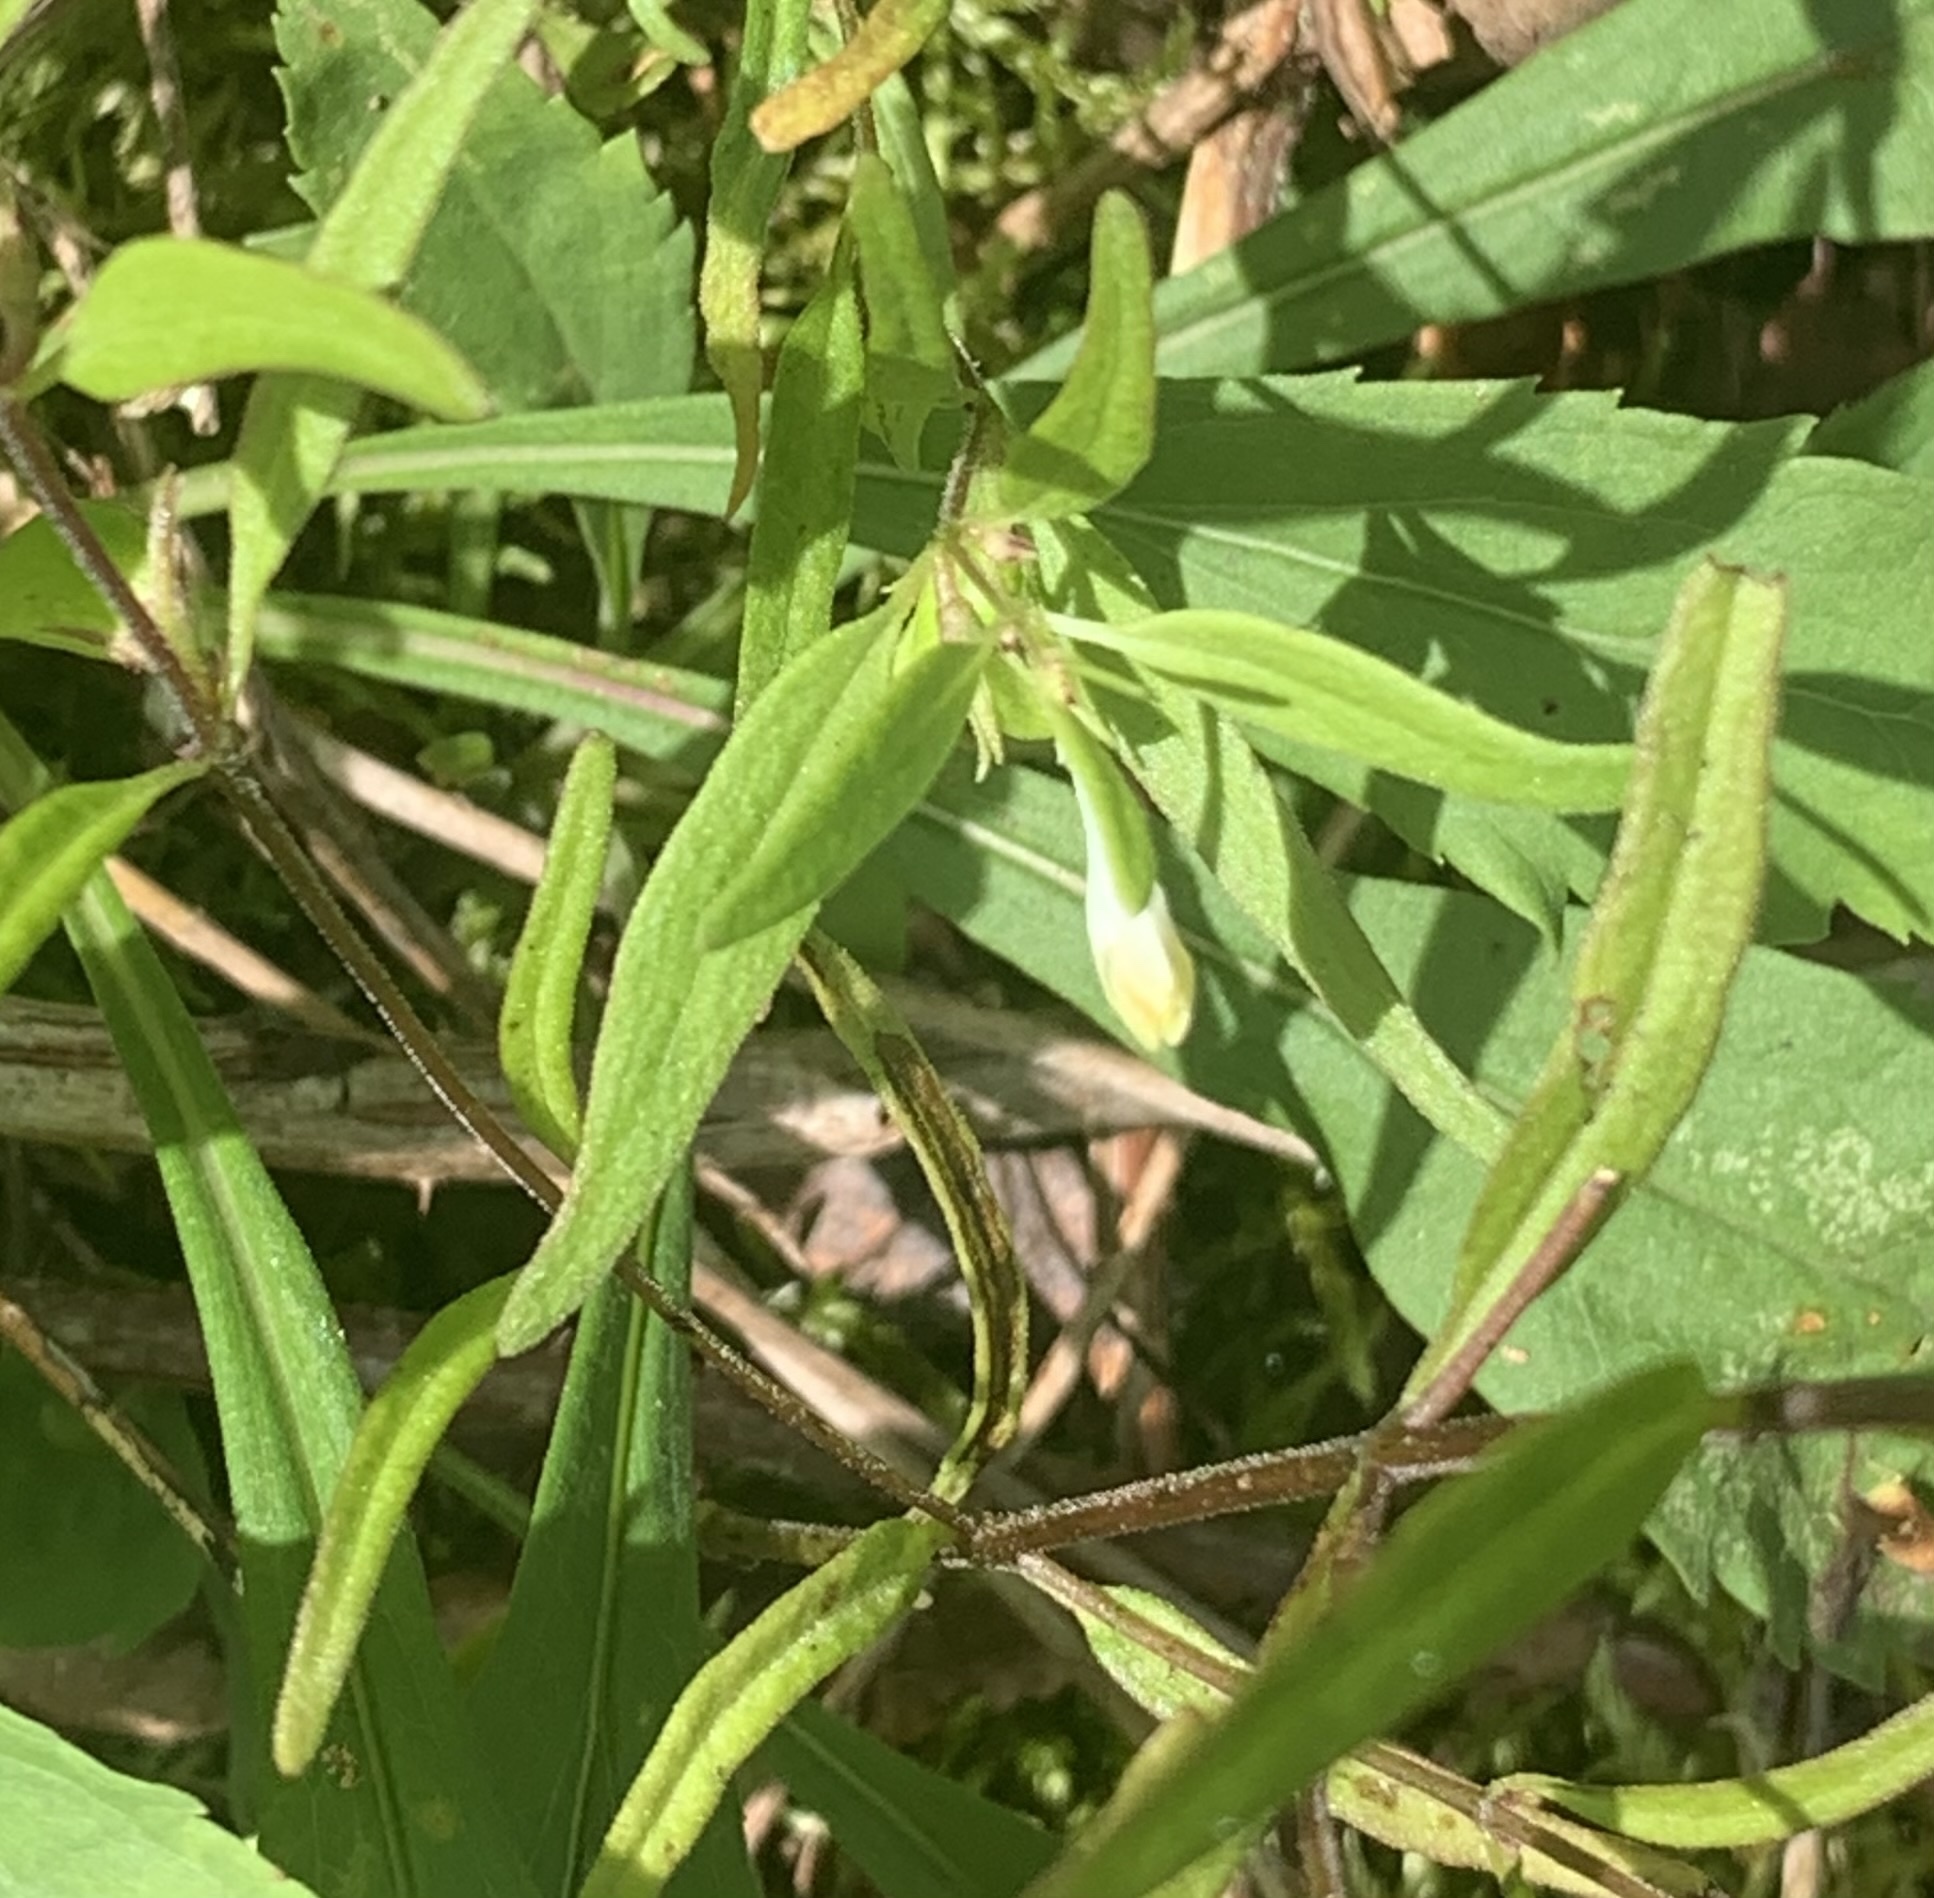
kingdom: Plantae
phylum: Tracheophyta
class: Magnoliopsida
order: Lamiales
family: Orobanchaceae
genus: Melampyrum
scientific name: Melampyrum lineare
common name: American cow-wheat
